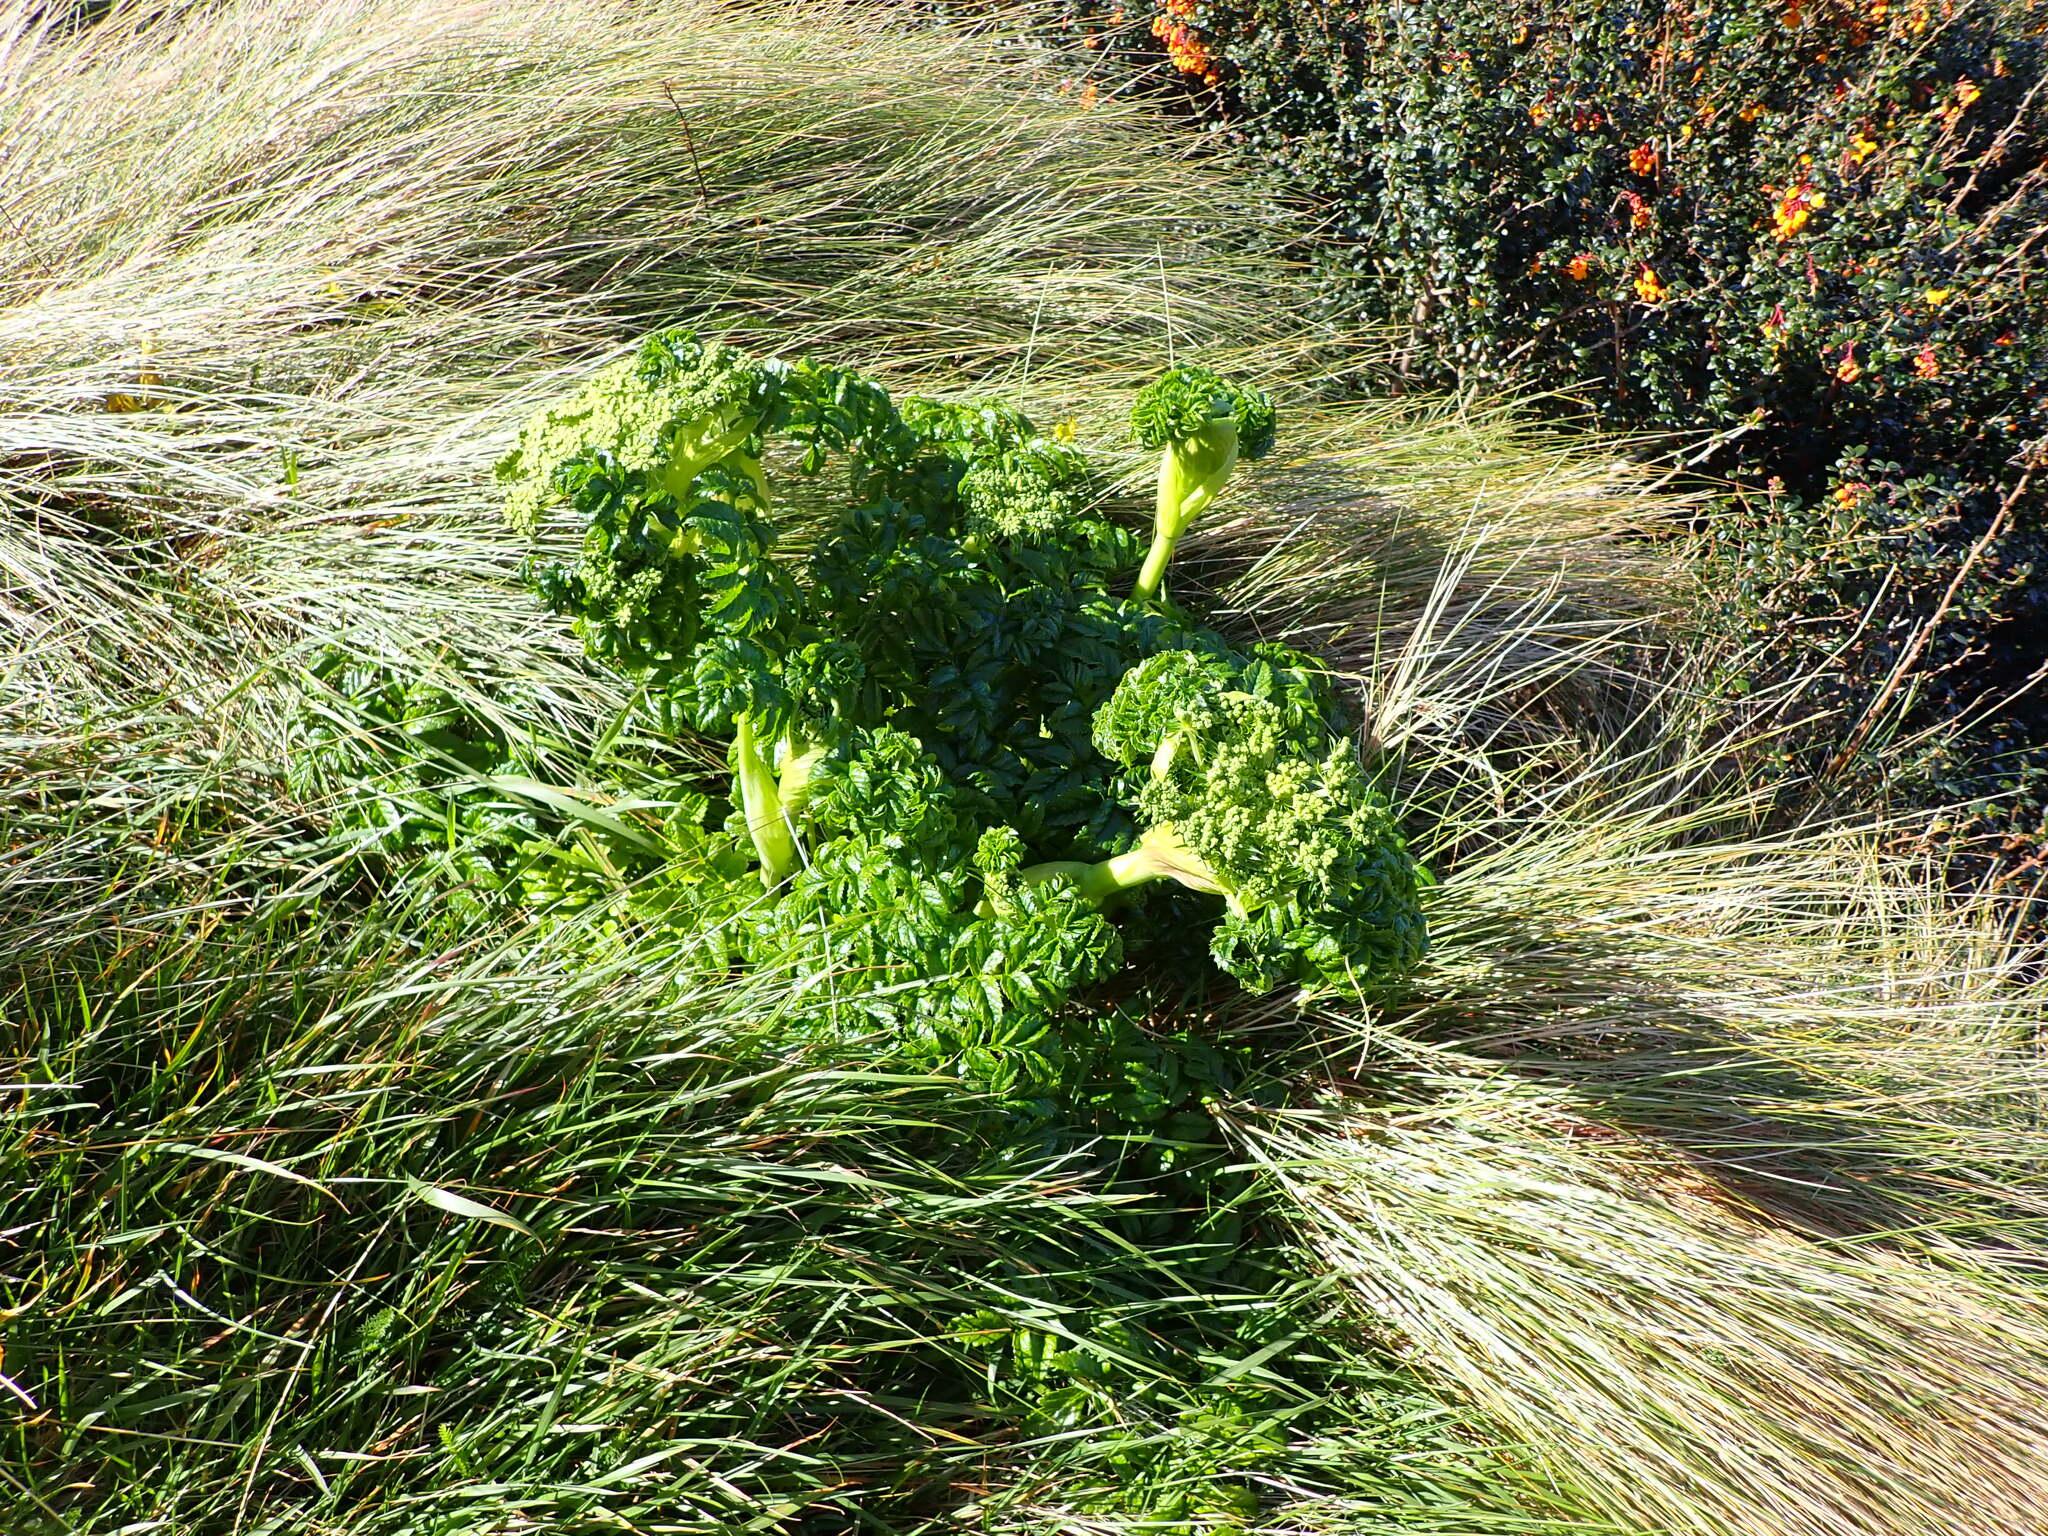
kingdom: Plantae
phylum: Tracheophyta
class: Magnoliopsida
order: Apiales
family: Apiaceae
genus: Angelica
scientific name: Angelica pachycarpa
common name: Portuguese angelica
